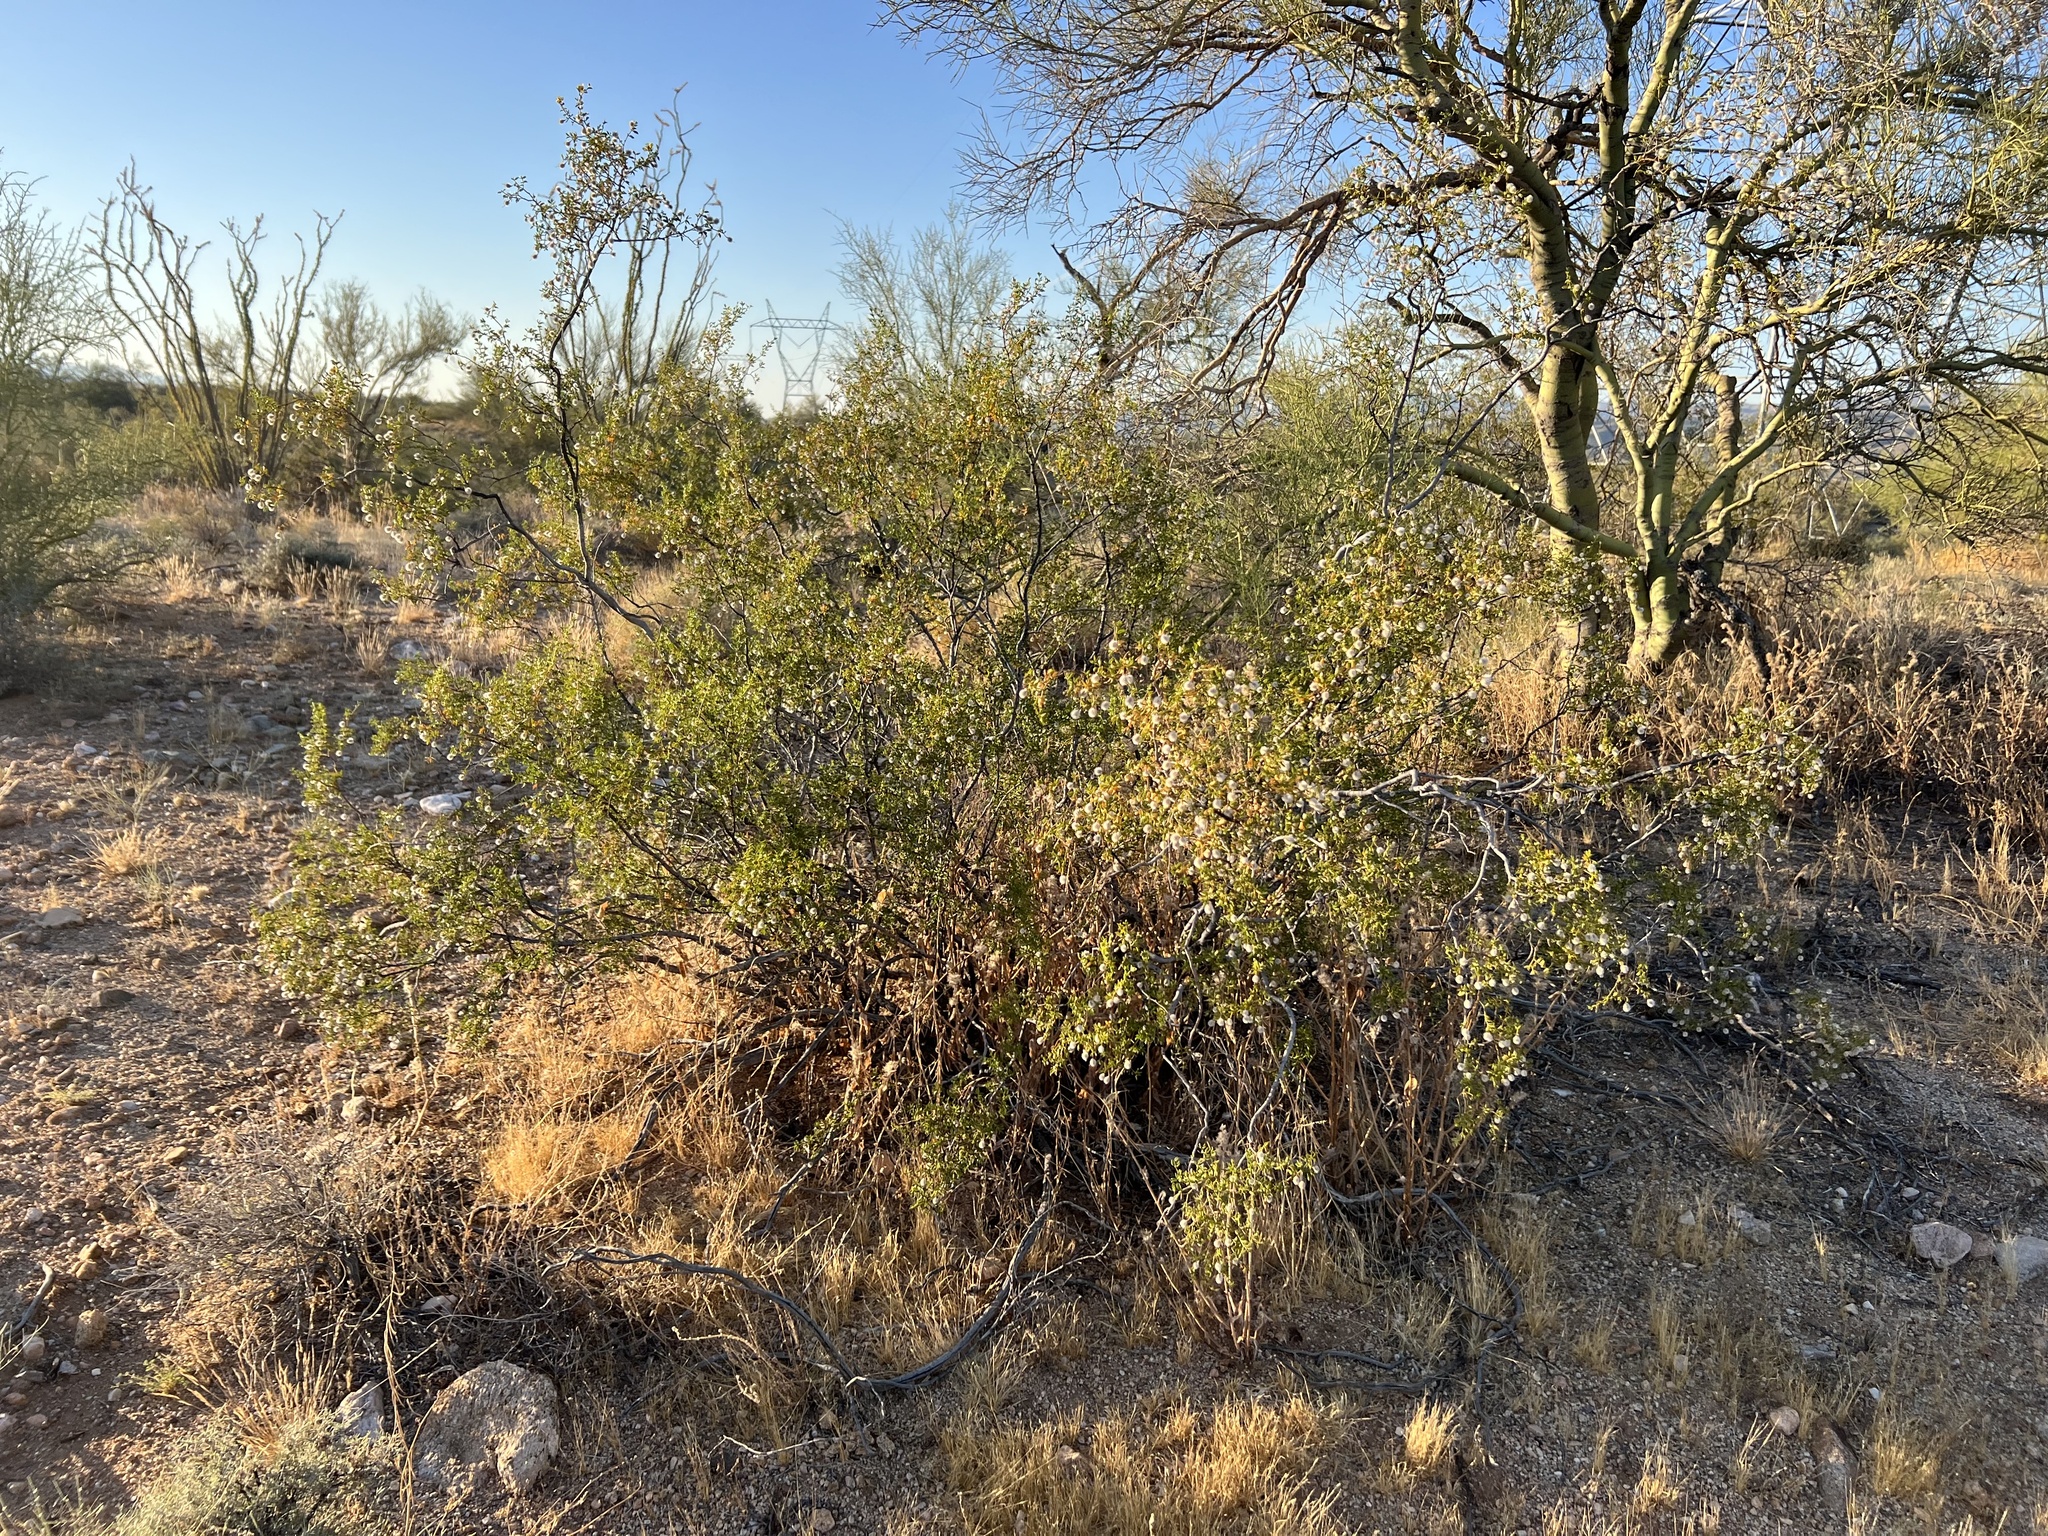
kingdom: Plantae
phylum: Tracheophyta
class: Magnoliopsida
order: Zygophyllales
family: Zygophyllaceae
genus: Larrea
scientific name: Larrea tridentata
